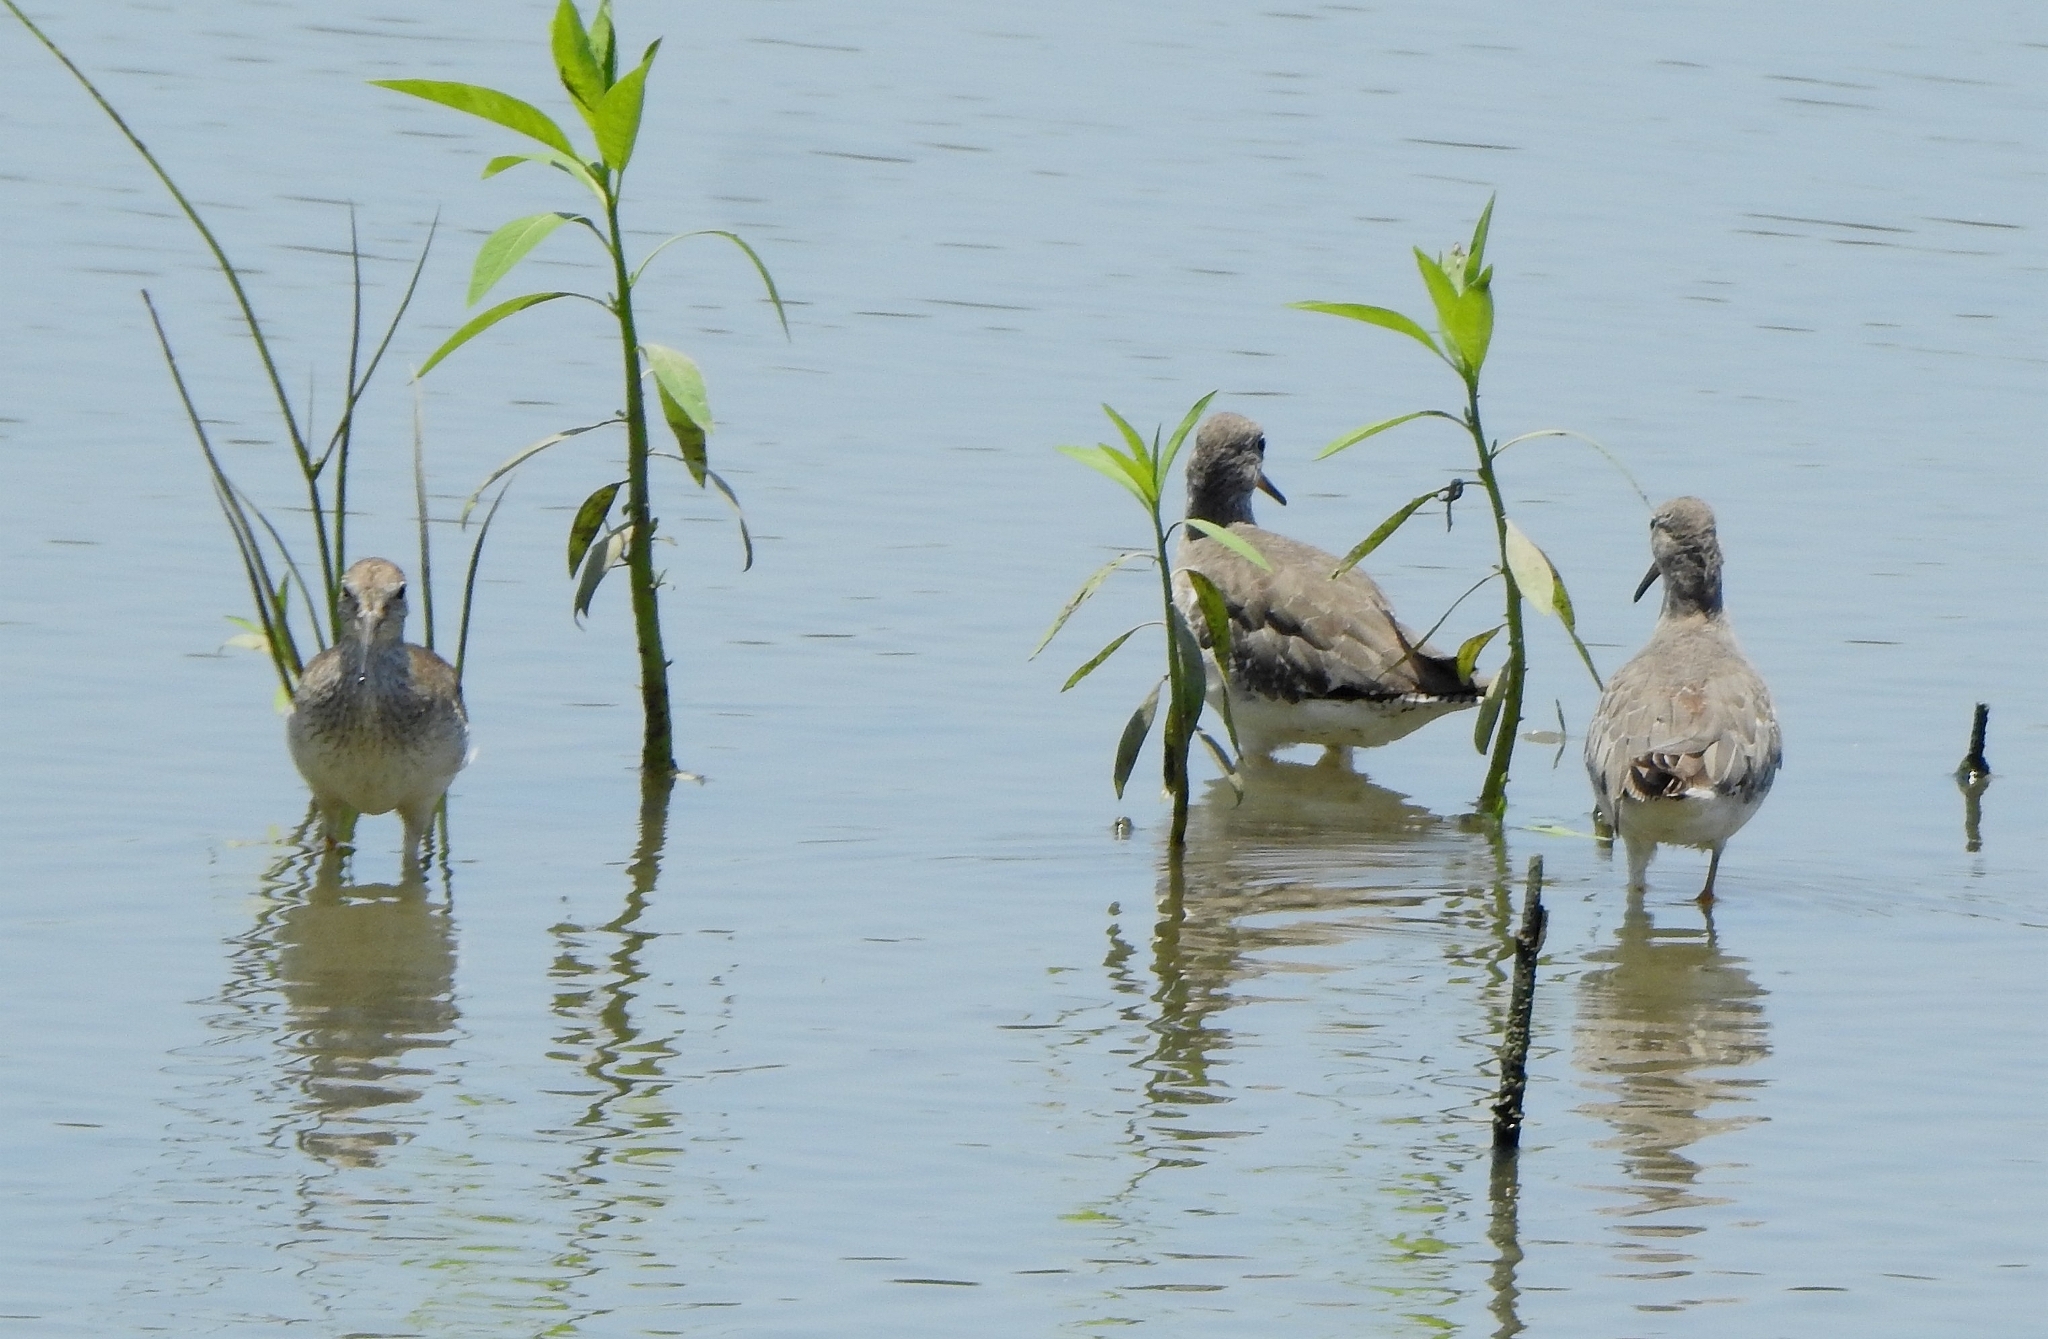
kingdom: Animalia
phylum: Chordata
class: Aves
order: Charadriiformes
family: Scolopacidae
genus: Tringa
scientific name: Tringa totanus
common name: Common redshank
